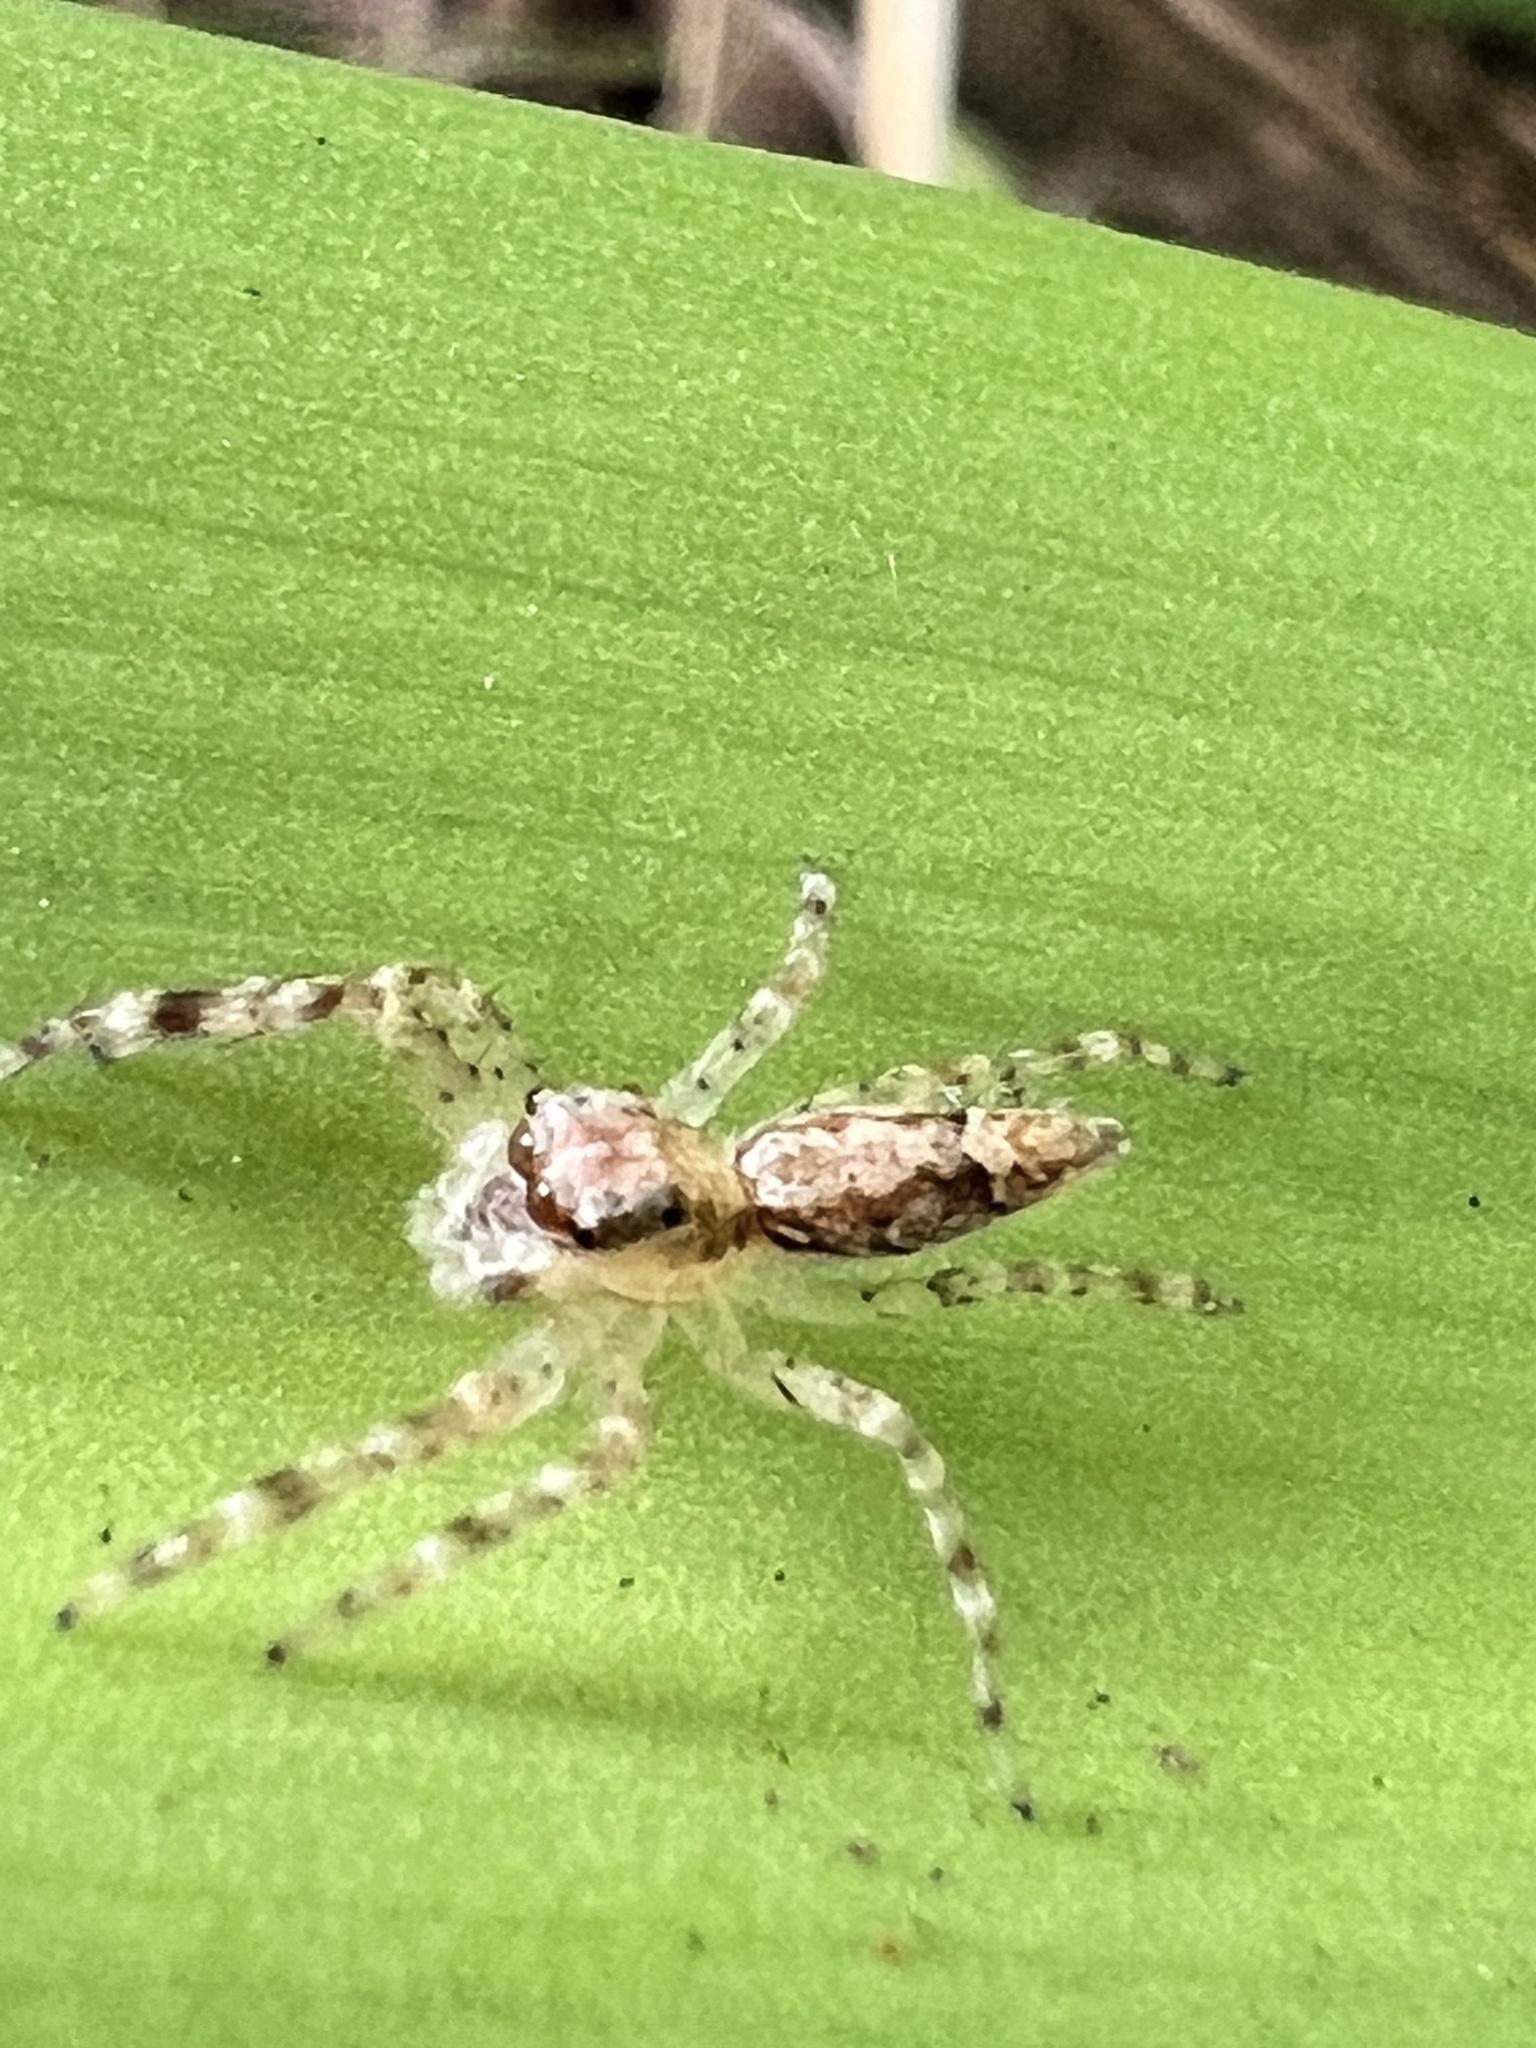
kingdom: Animalia
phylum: Arthropoda
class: Arachnida
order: Araneae
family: Salticidae
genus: Helpis
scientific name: Helpis minitabunda
